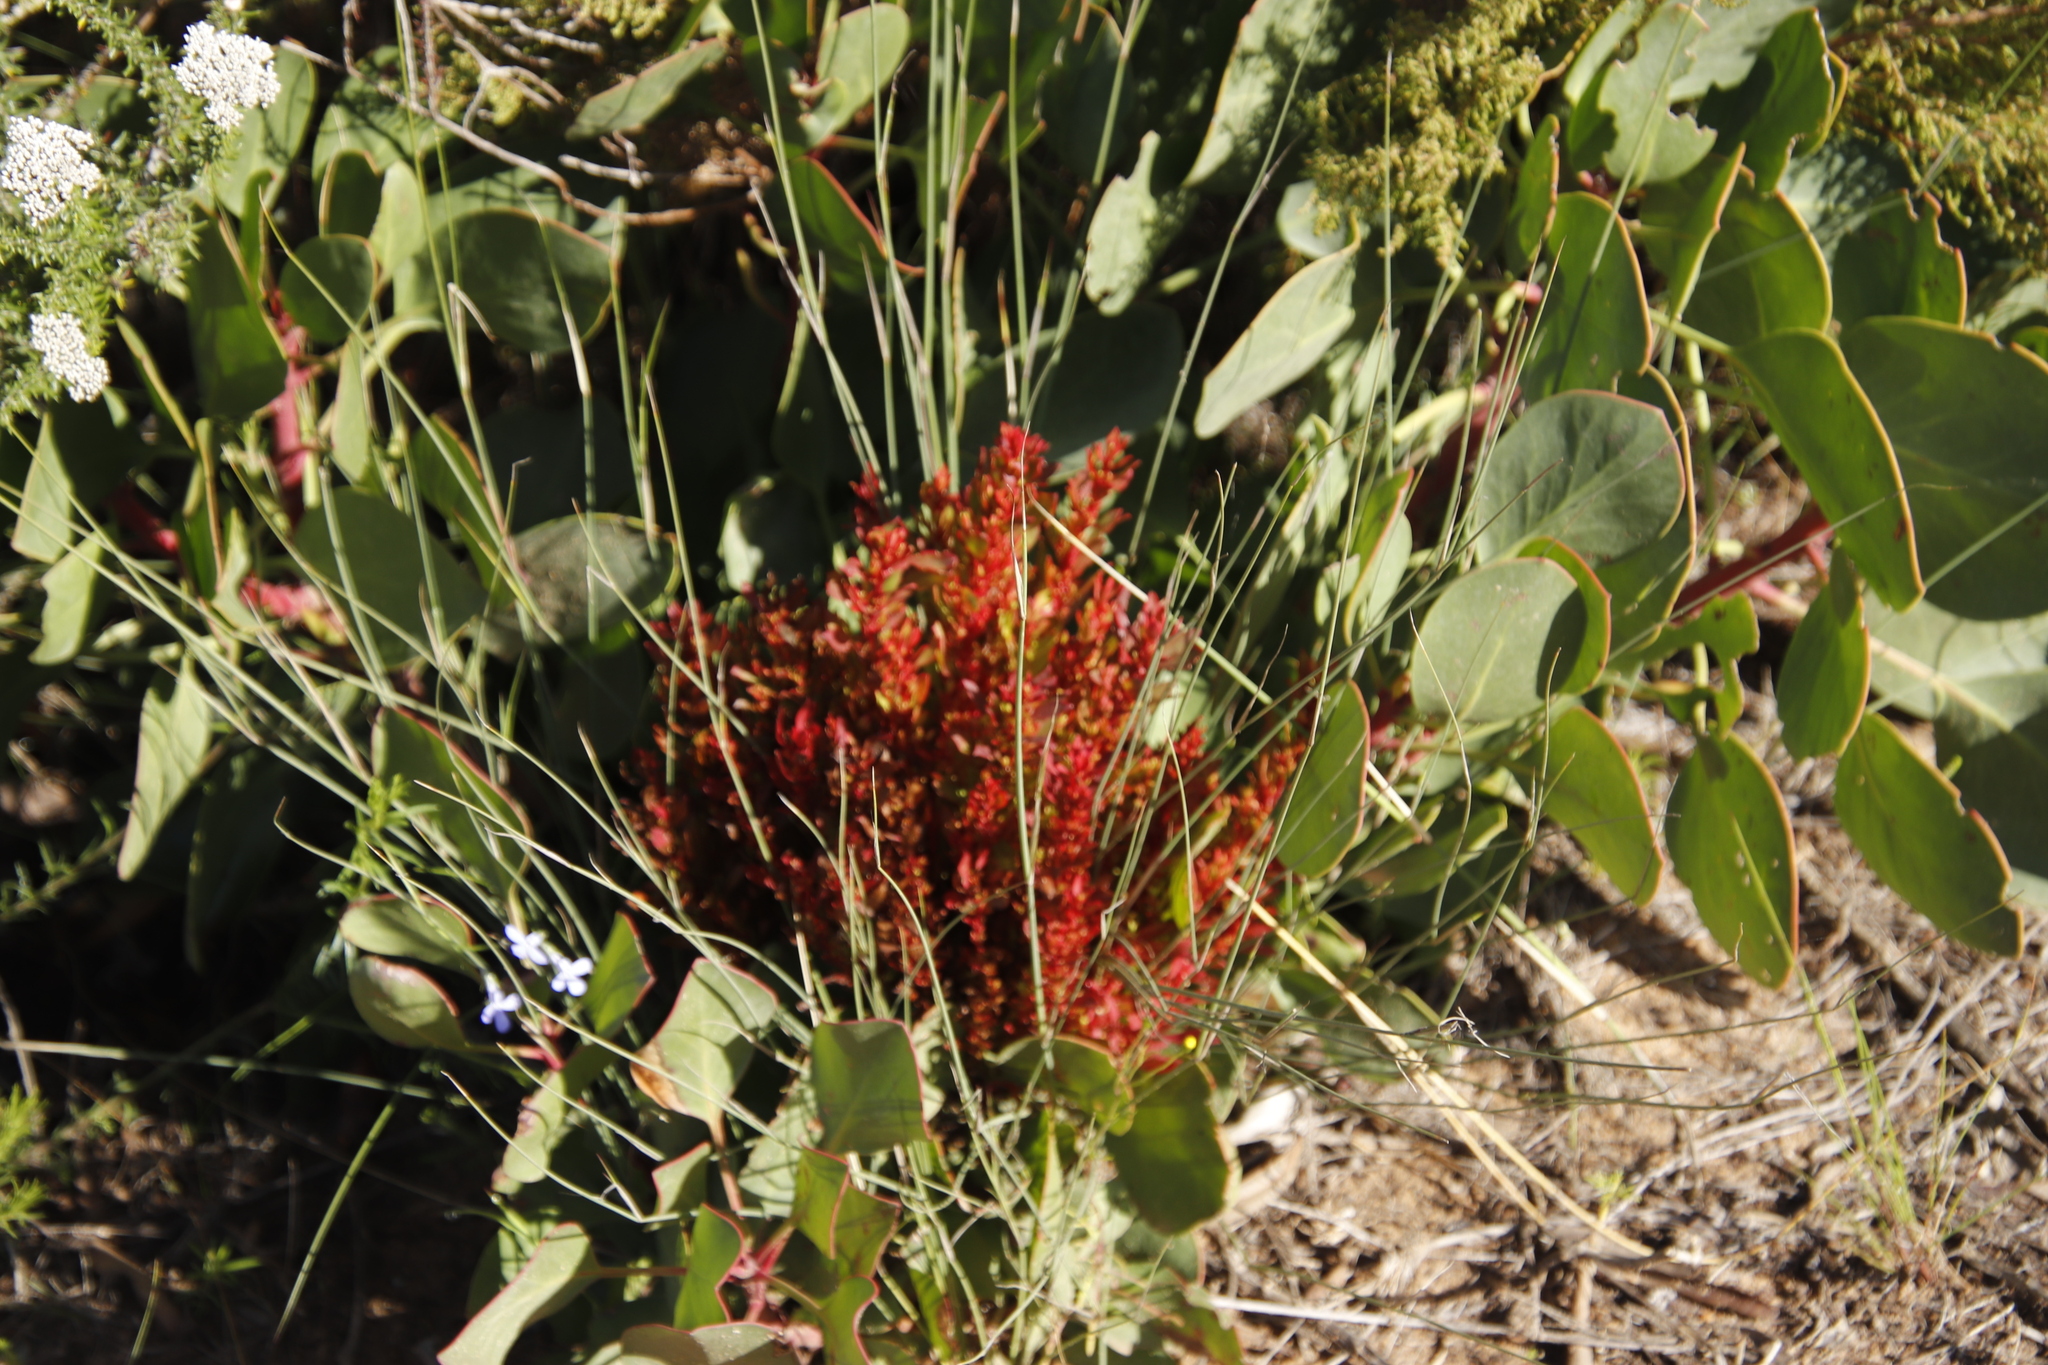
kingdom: Bacteria
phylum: Firmicutes
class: Bacilli
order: Acholeplasmatales
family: Acholeplasmataceae
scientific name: Acholeplasmataceae
